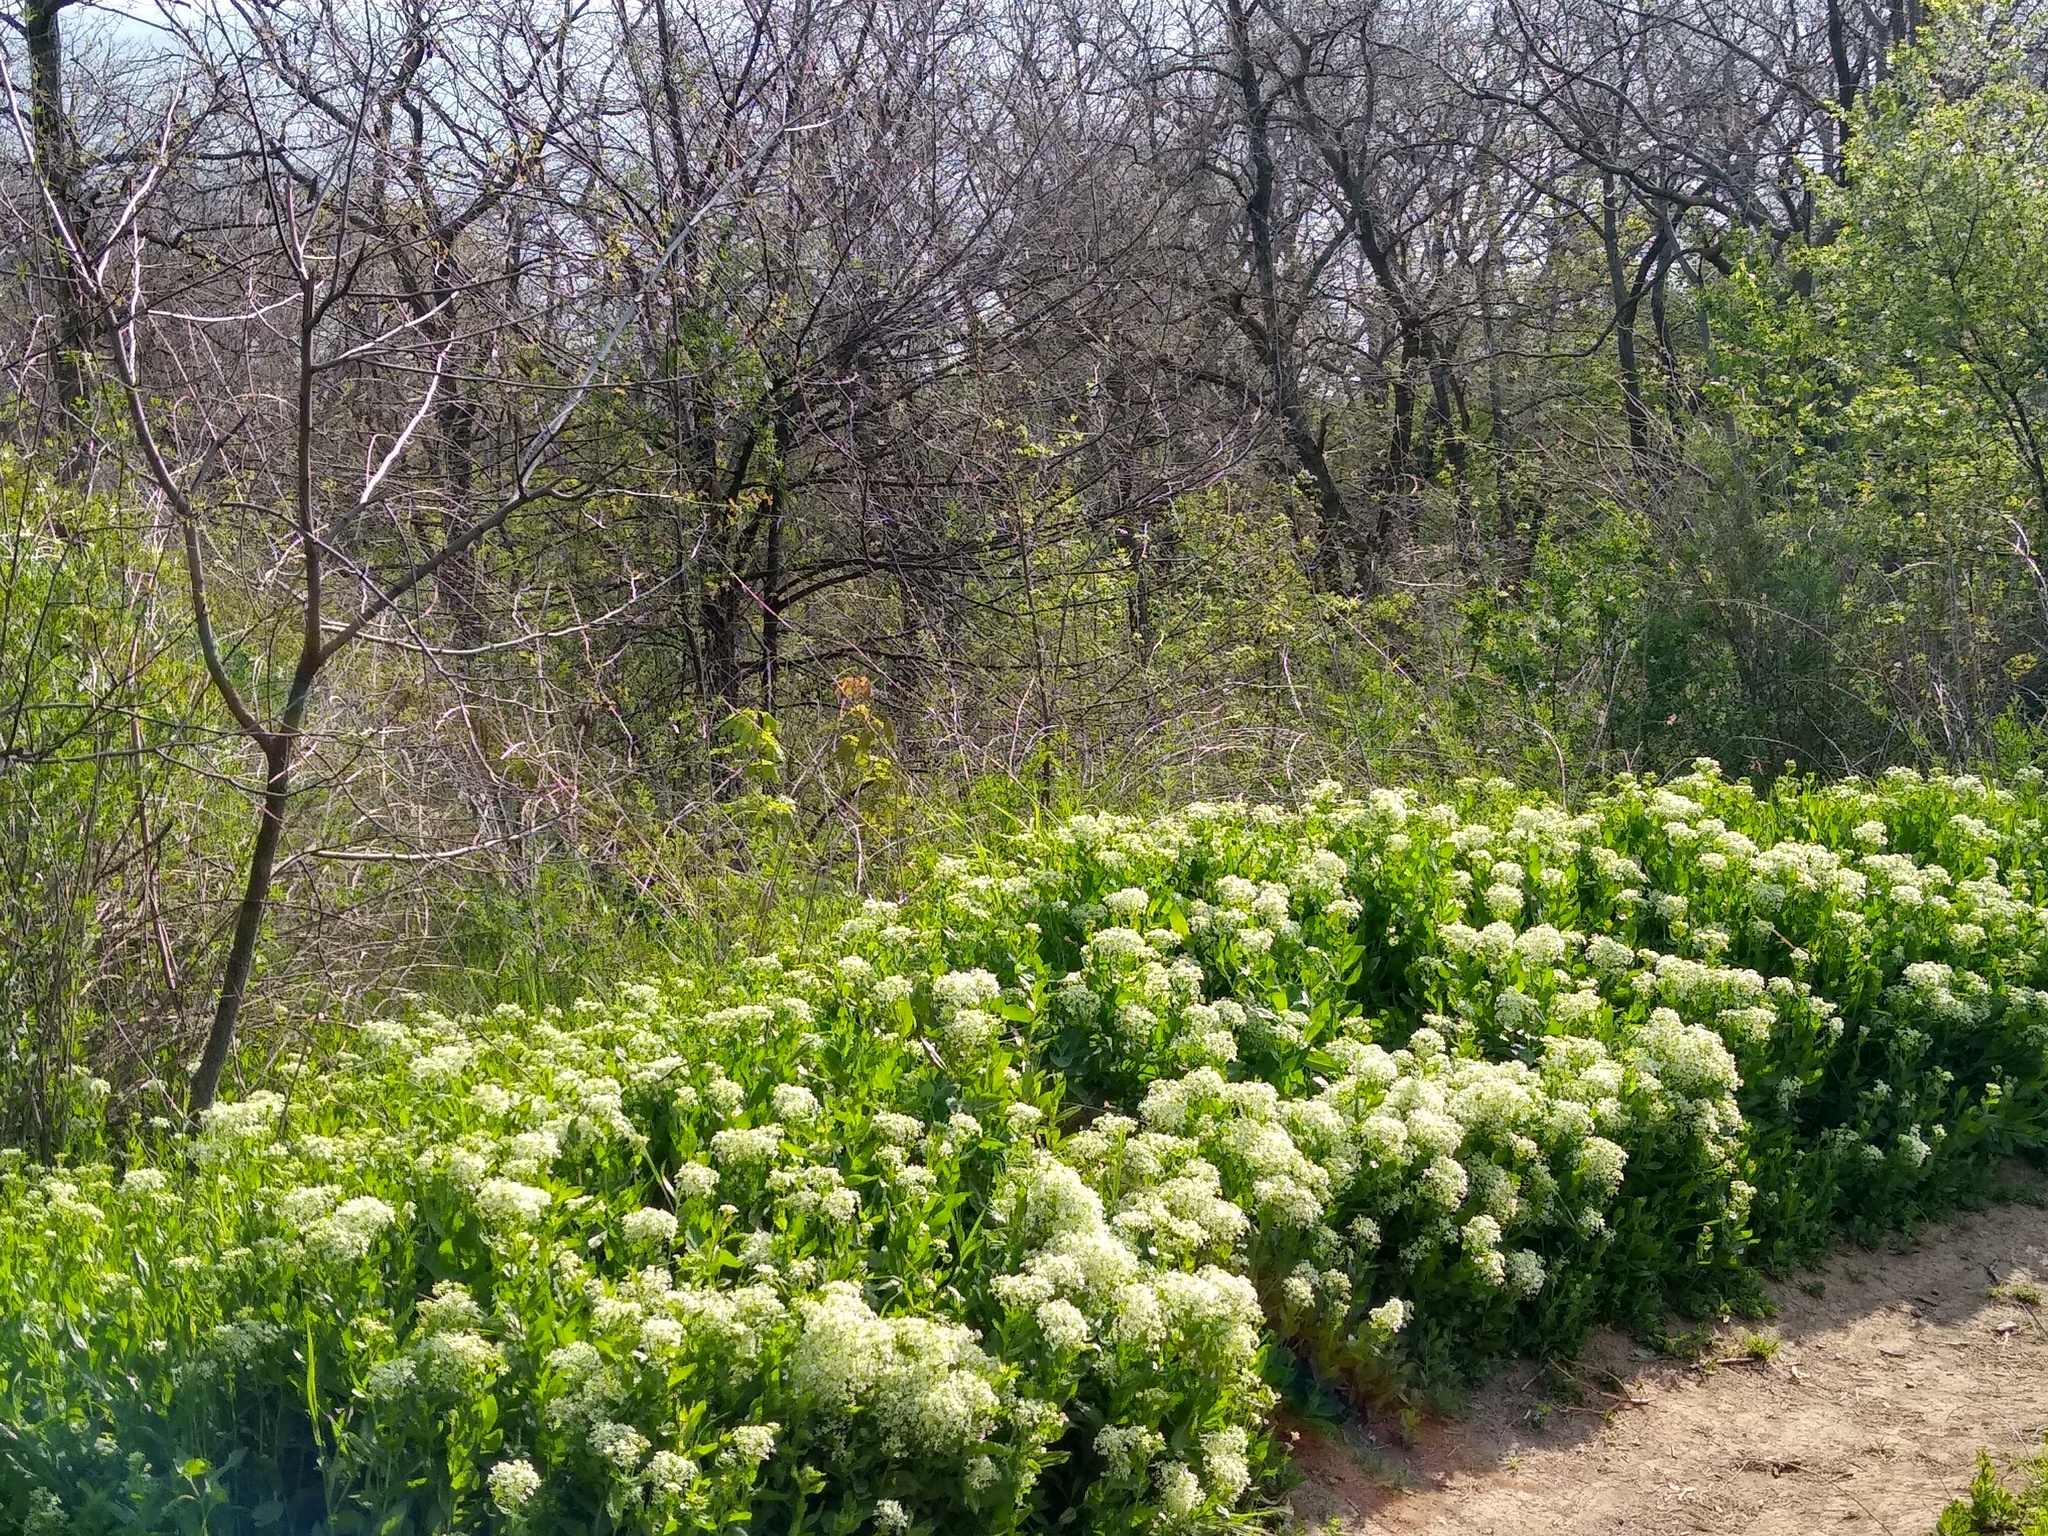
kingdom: Plantae
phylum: Tracheophyta
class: Magnoliopsida
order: Brassicales
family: Brassicaceae
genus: Lepidium
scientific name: Lepidium draba
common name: Hoary cress
